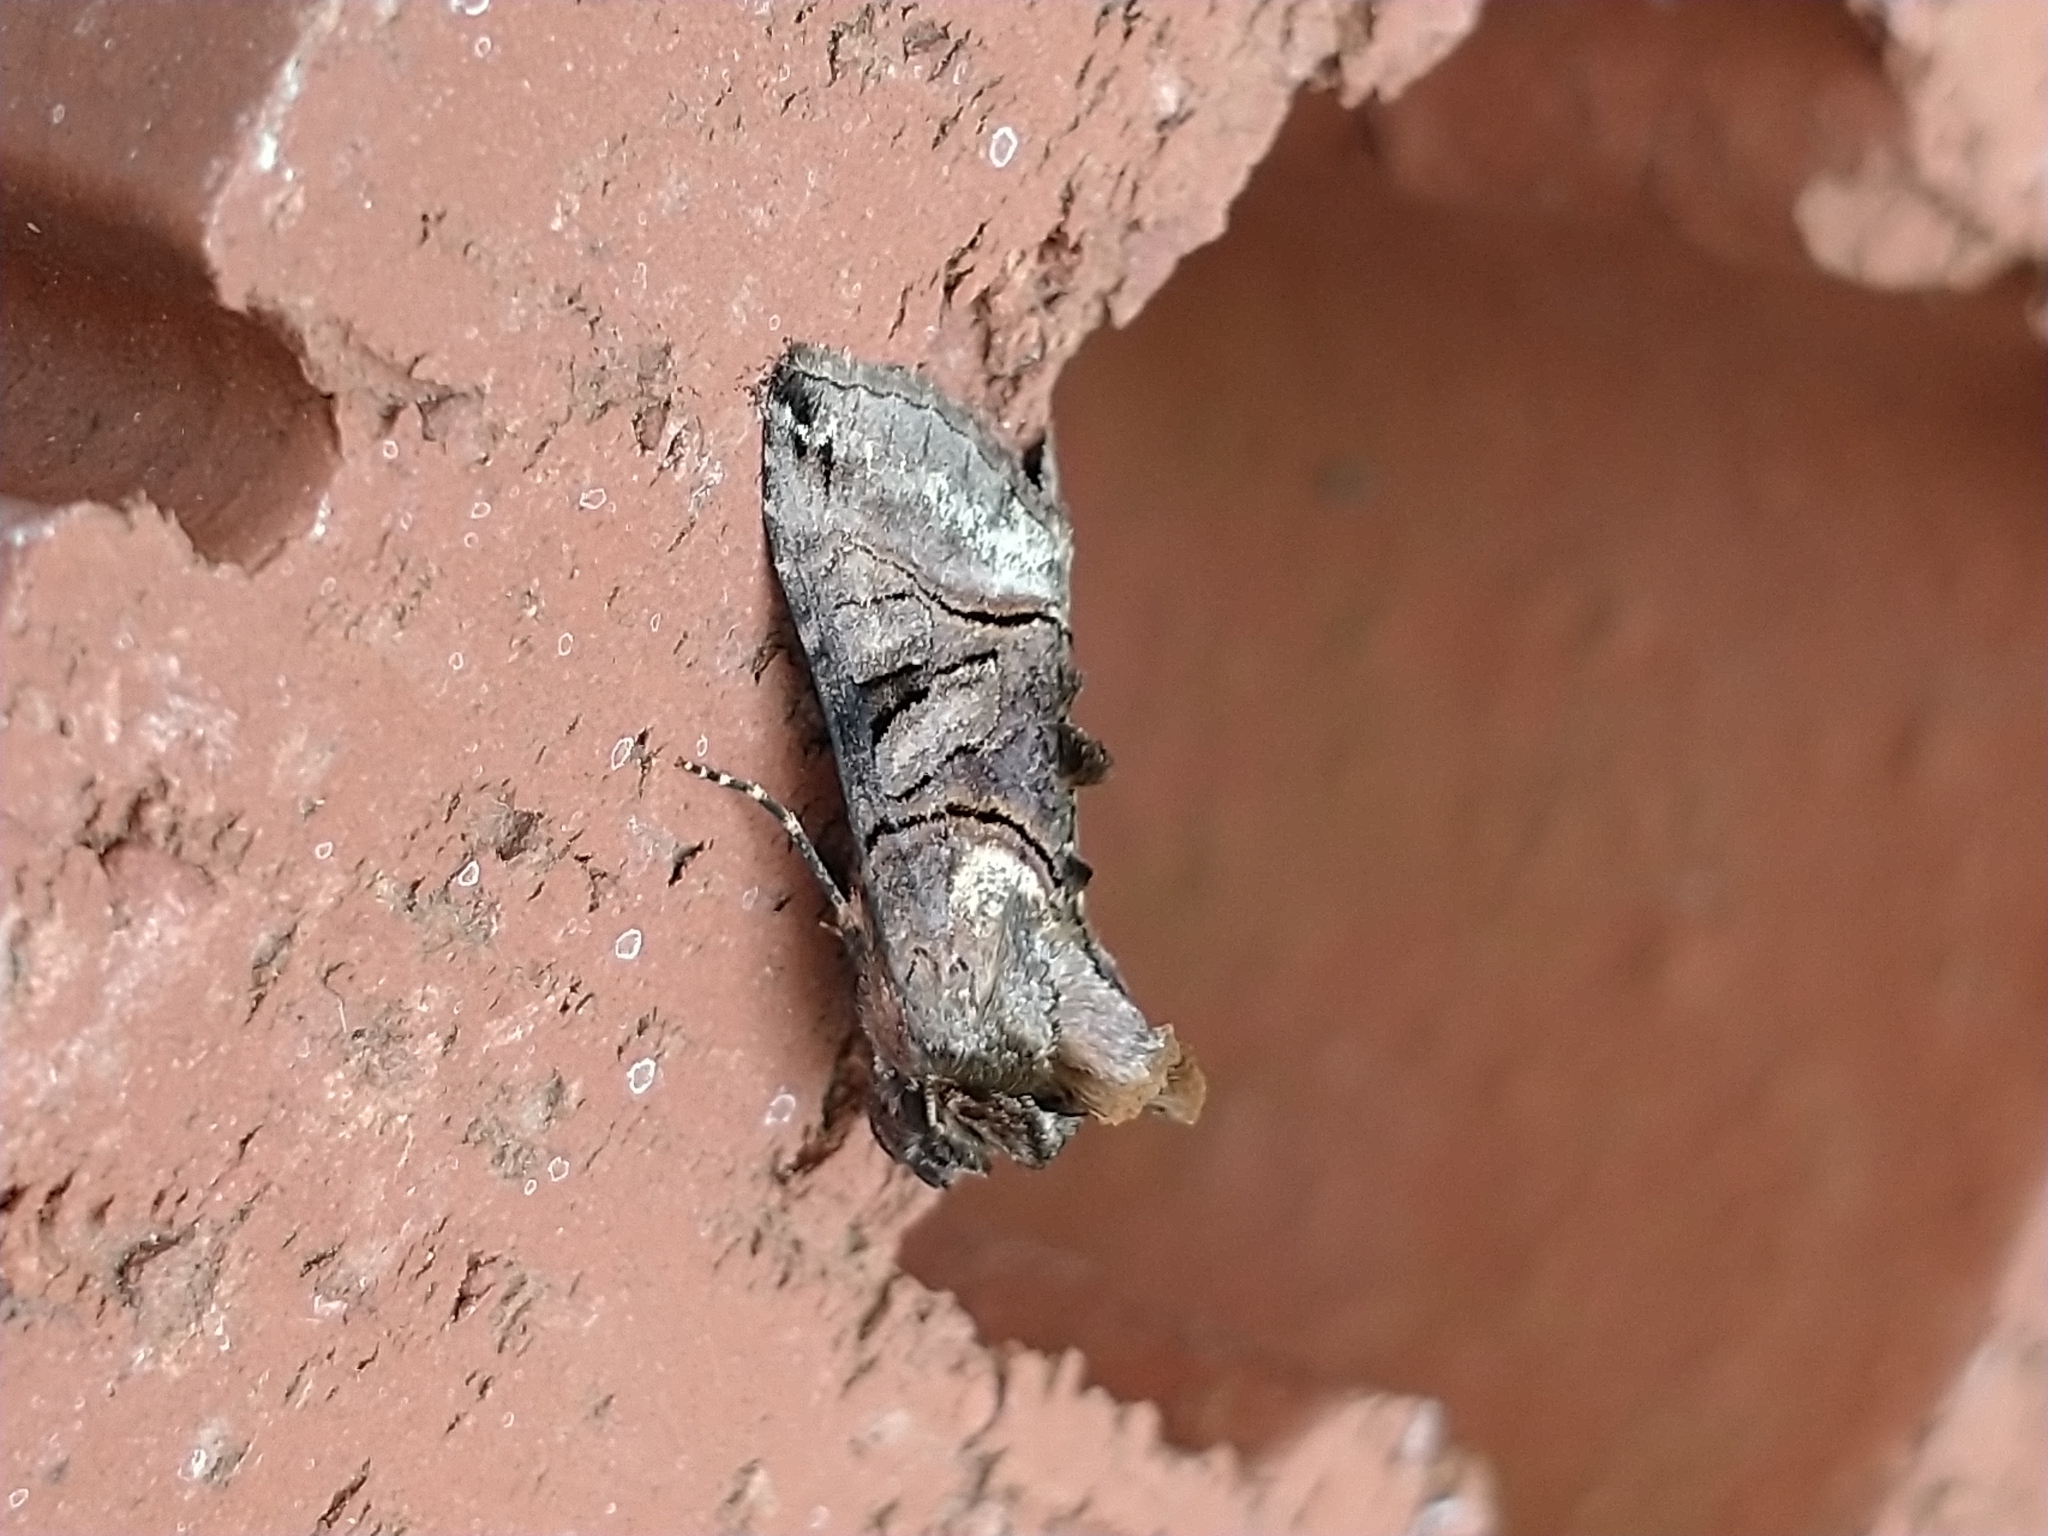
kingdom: Animalia
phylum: Arthropoda
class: Insecta
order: Lepidoptera
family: Noctuidae
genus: Abrostola
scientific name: Abrostola tripartita
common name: Spectacle
